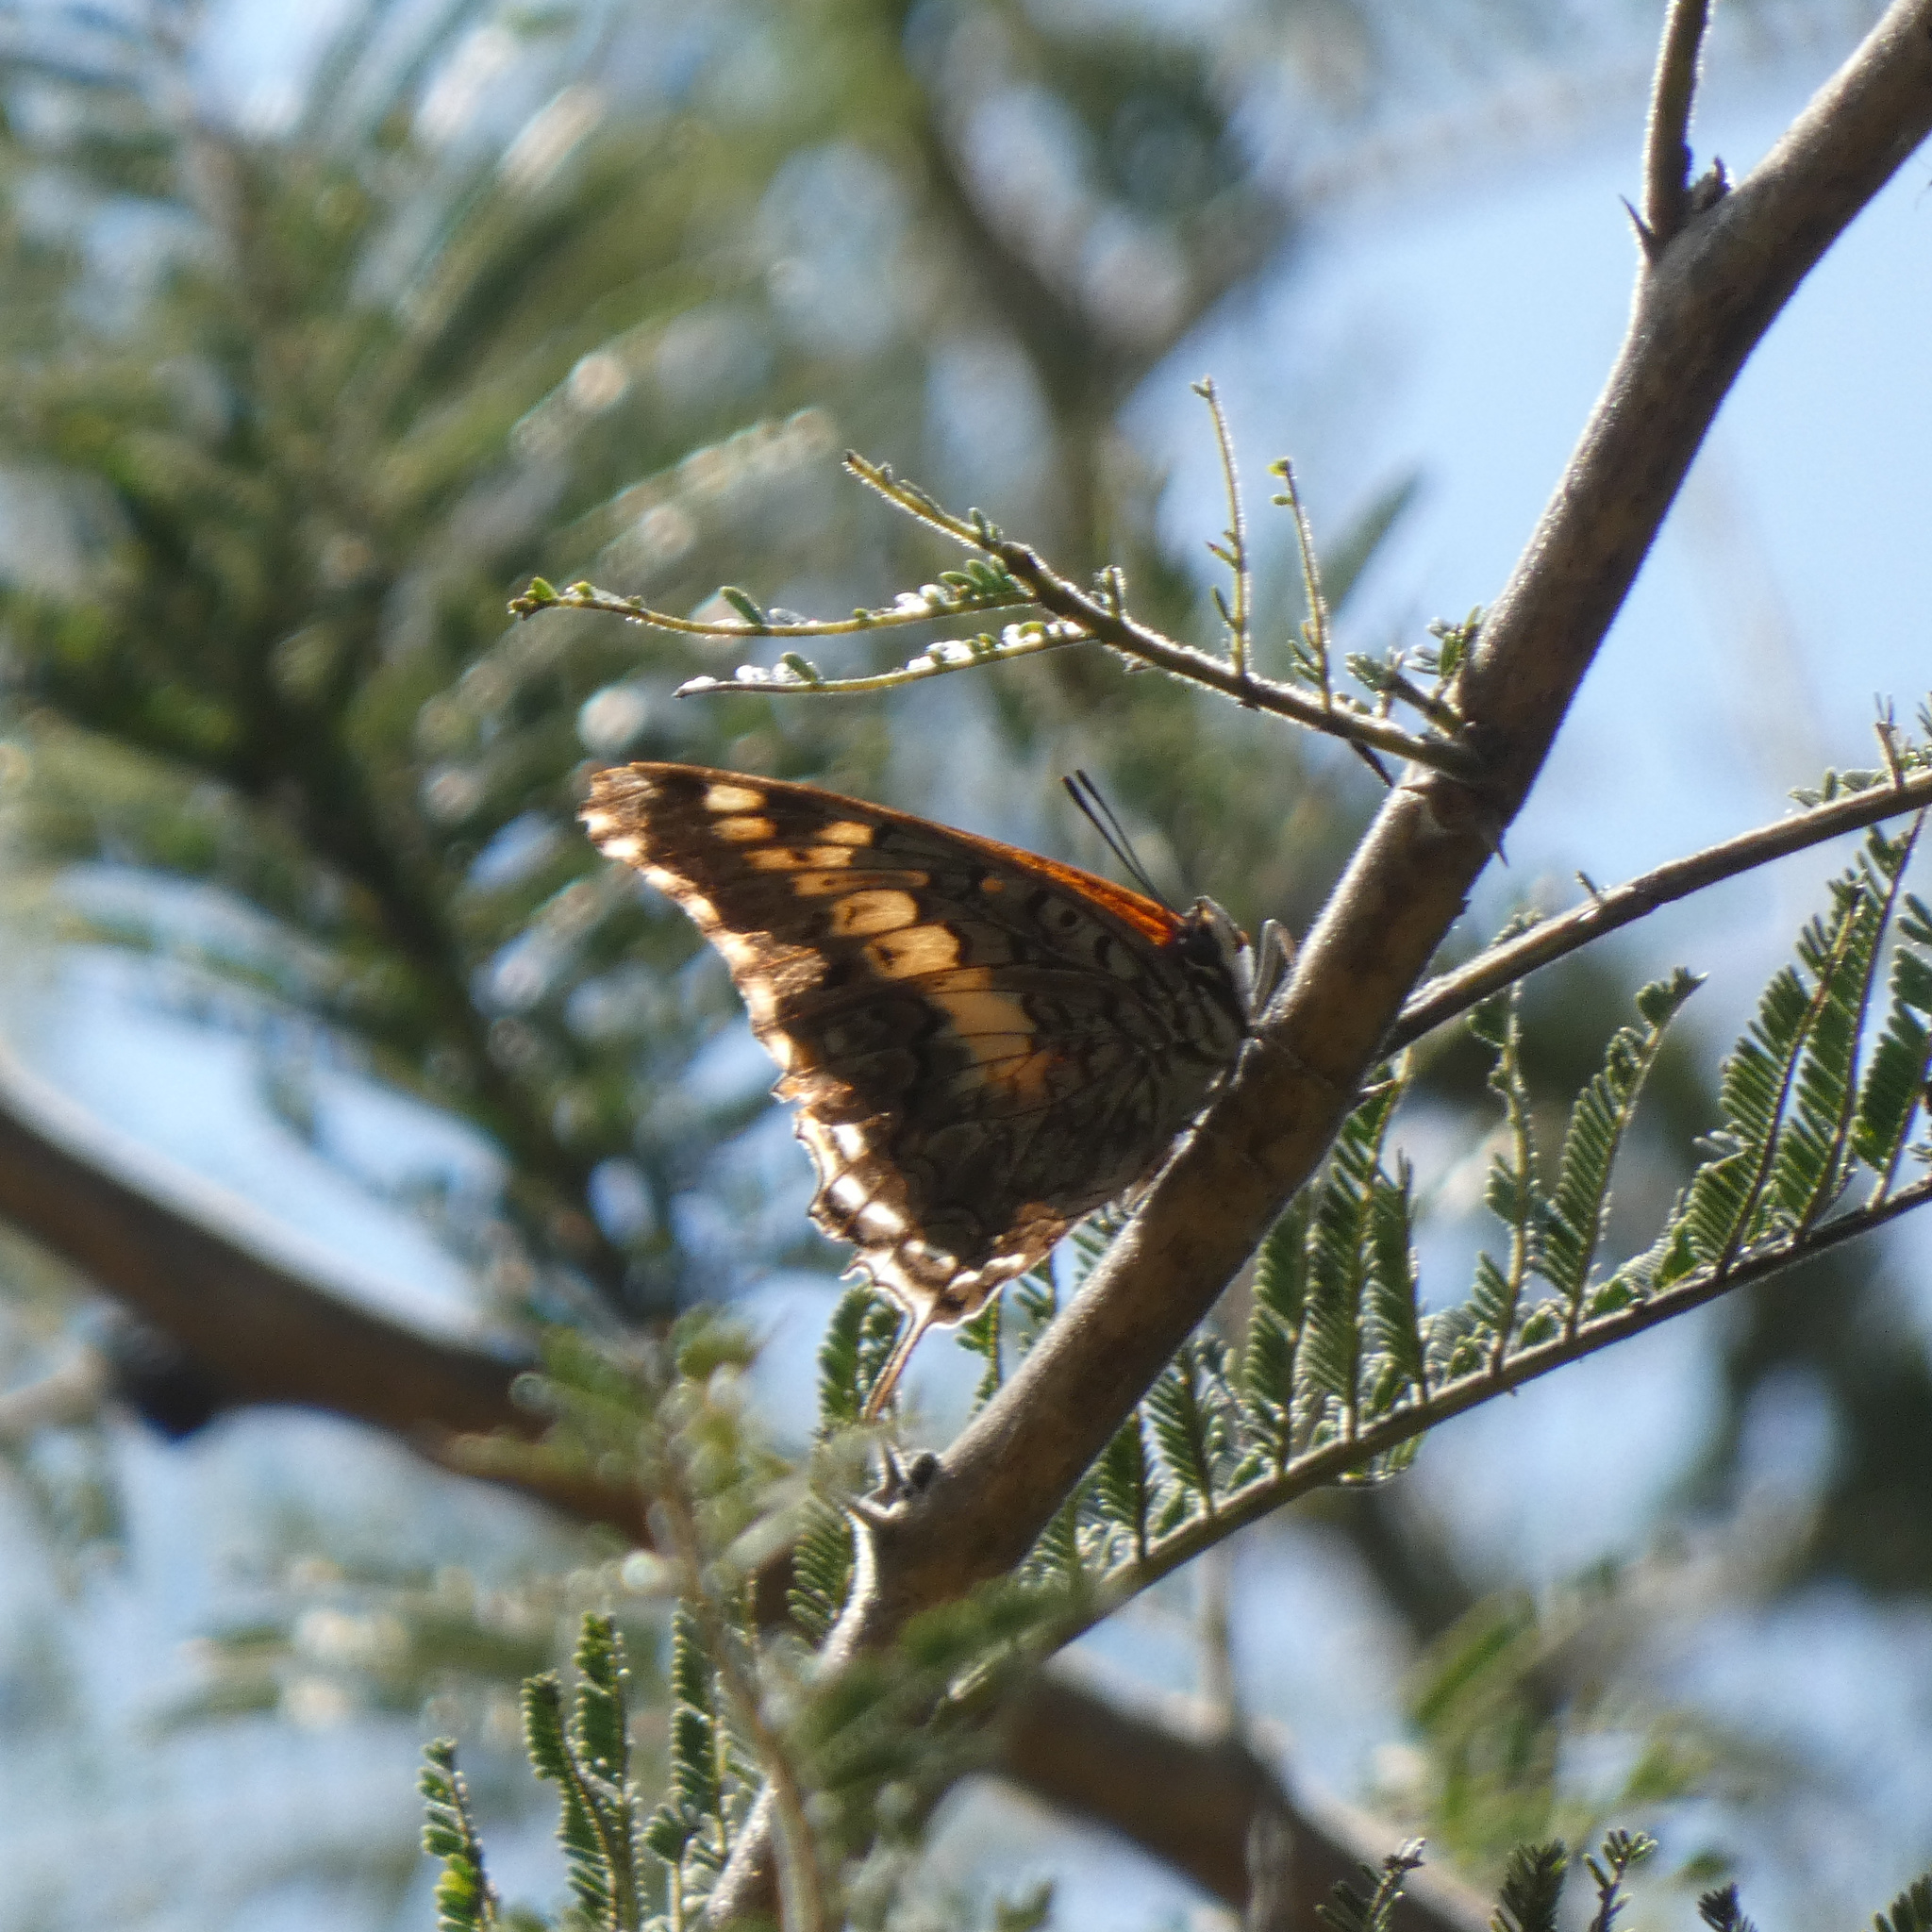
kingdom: Animalia
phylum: Arthropoda
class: Insecta
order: Lepidoptera
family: Nymphalidae
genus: Charaxes
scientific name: Charaxes achaemenes
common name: Bushveld charaxes
